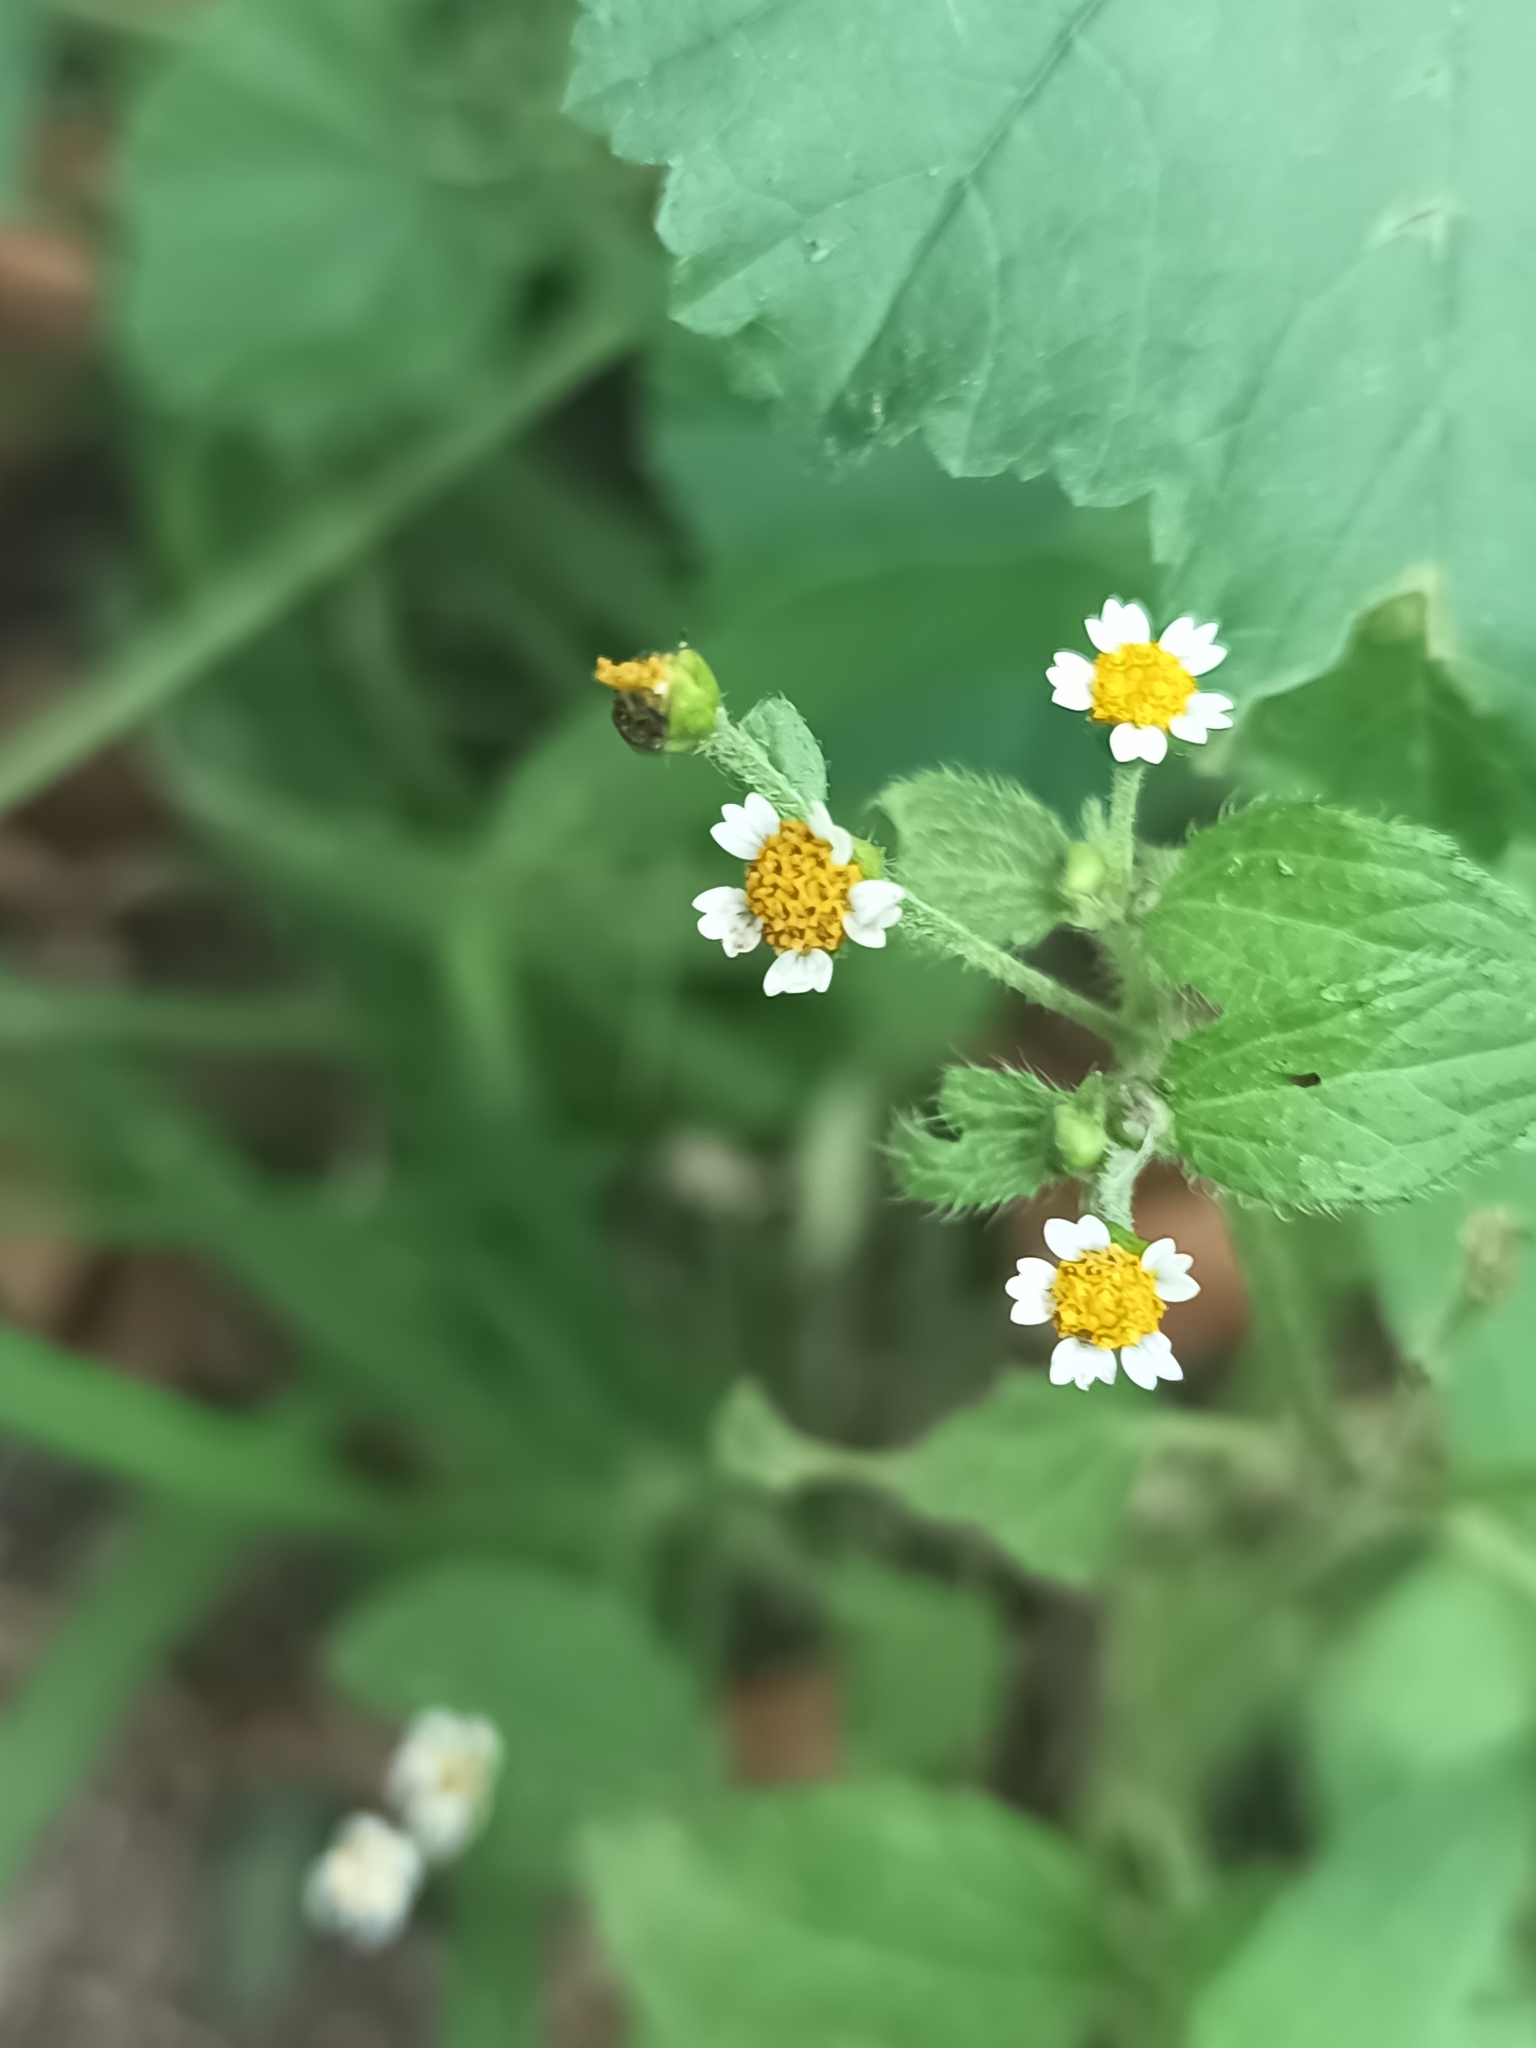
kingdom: Plantae
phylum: Tracheophyta
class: Magnoliopsida
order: Asterales
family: Asteraceae
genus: Galinsoga
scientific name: Galinsoga quadriradiata
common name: Shaggy soldier
